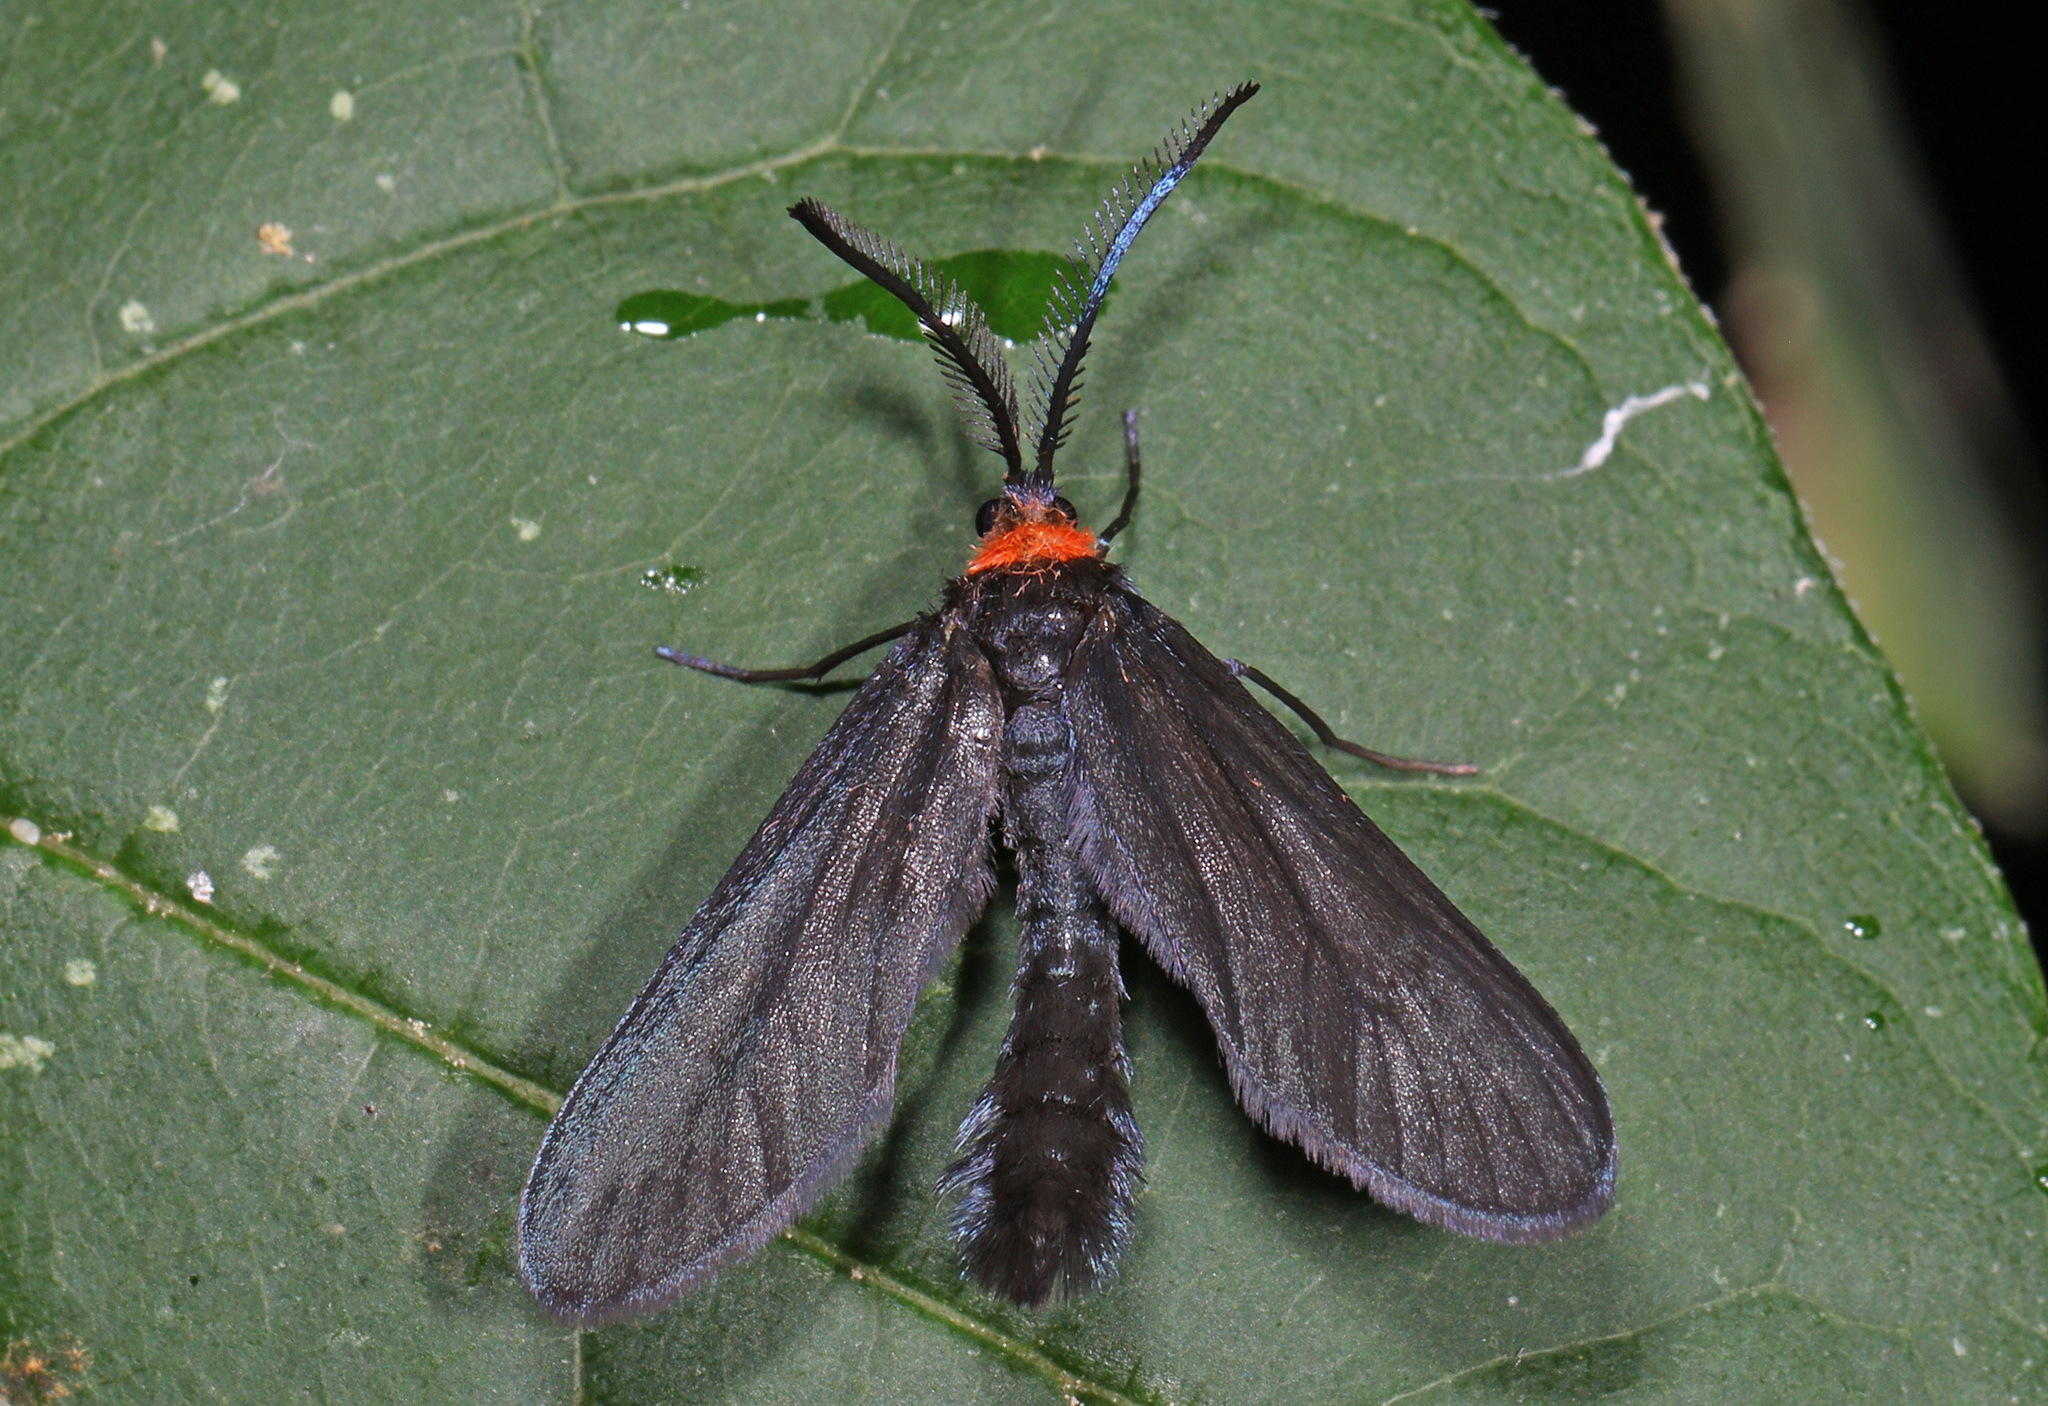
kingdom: Animalia
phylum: Arthropoda
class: Insecta
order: Lepidoptera
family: Zygaenidae
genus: Harrisina
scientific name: Harrisina americana
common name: Grapeleaf skeletonizer moth
